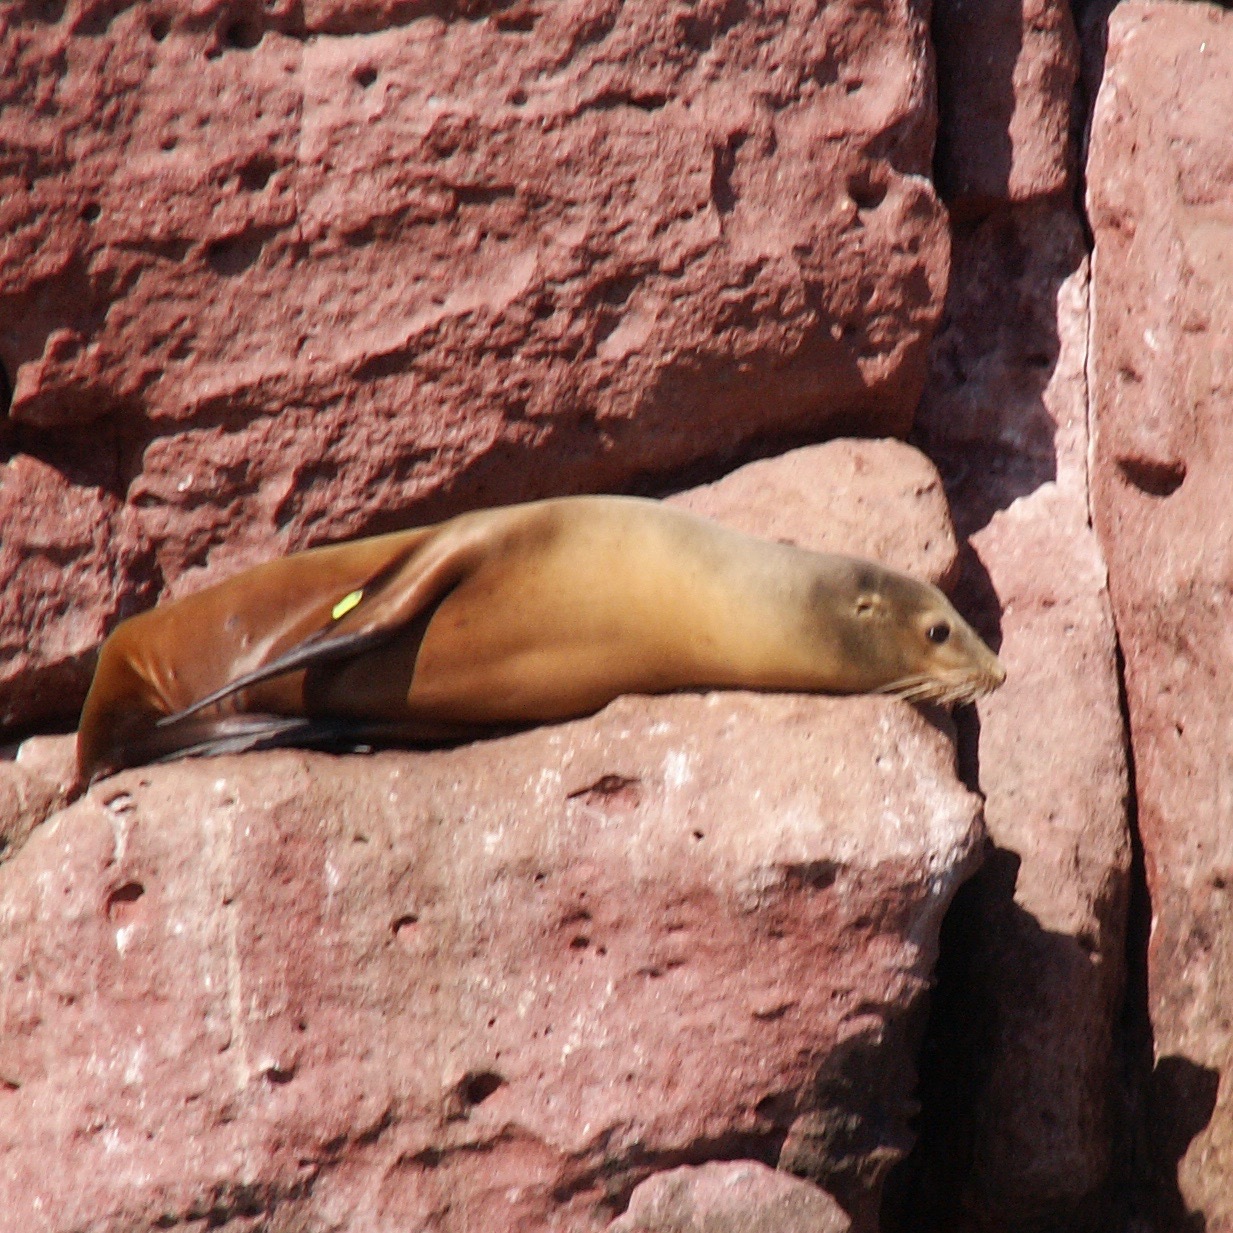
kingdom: Animalia
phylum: Chordata
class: Mammalia
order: Carnivora
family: Otariidae
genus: Zalophus
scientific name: Zalophus californianus
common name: California sea lion
